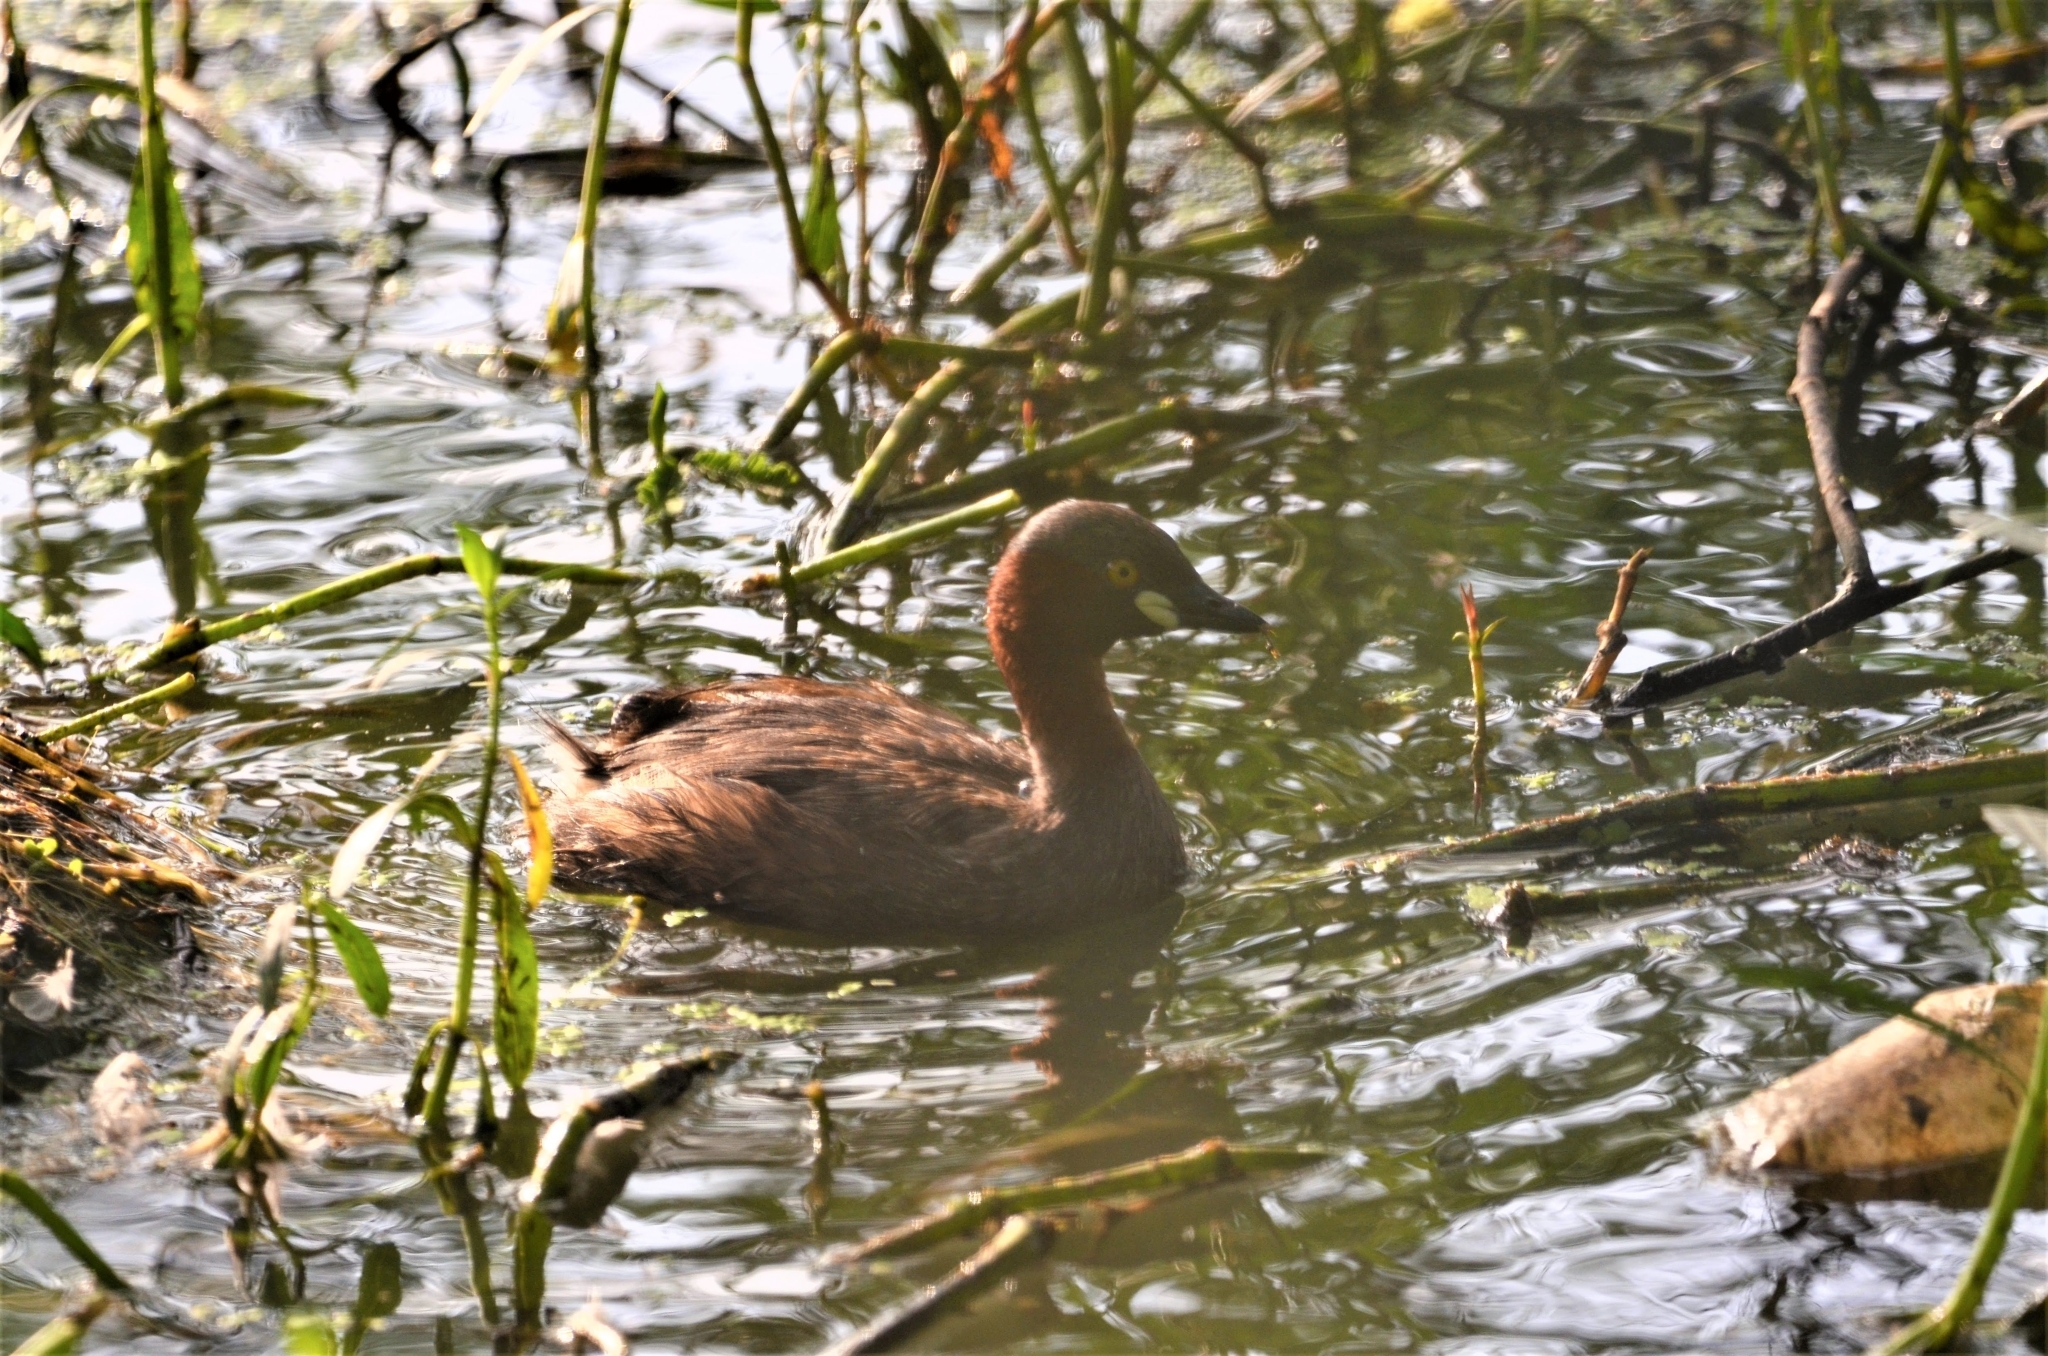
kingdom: Animalia
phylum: Chordata
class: Aves
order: Podicipediformes
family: Podicipedidae
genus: Tachybaptus
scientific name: Tachybaptus ruficollis
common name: Little grebe
